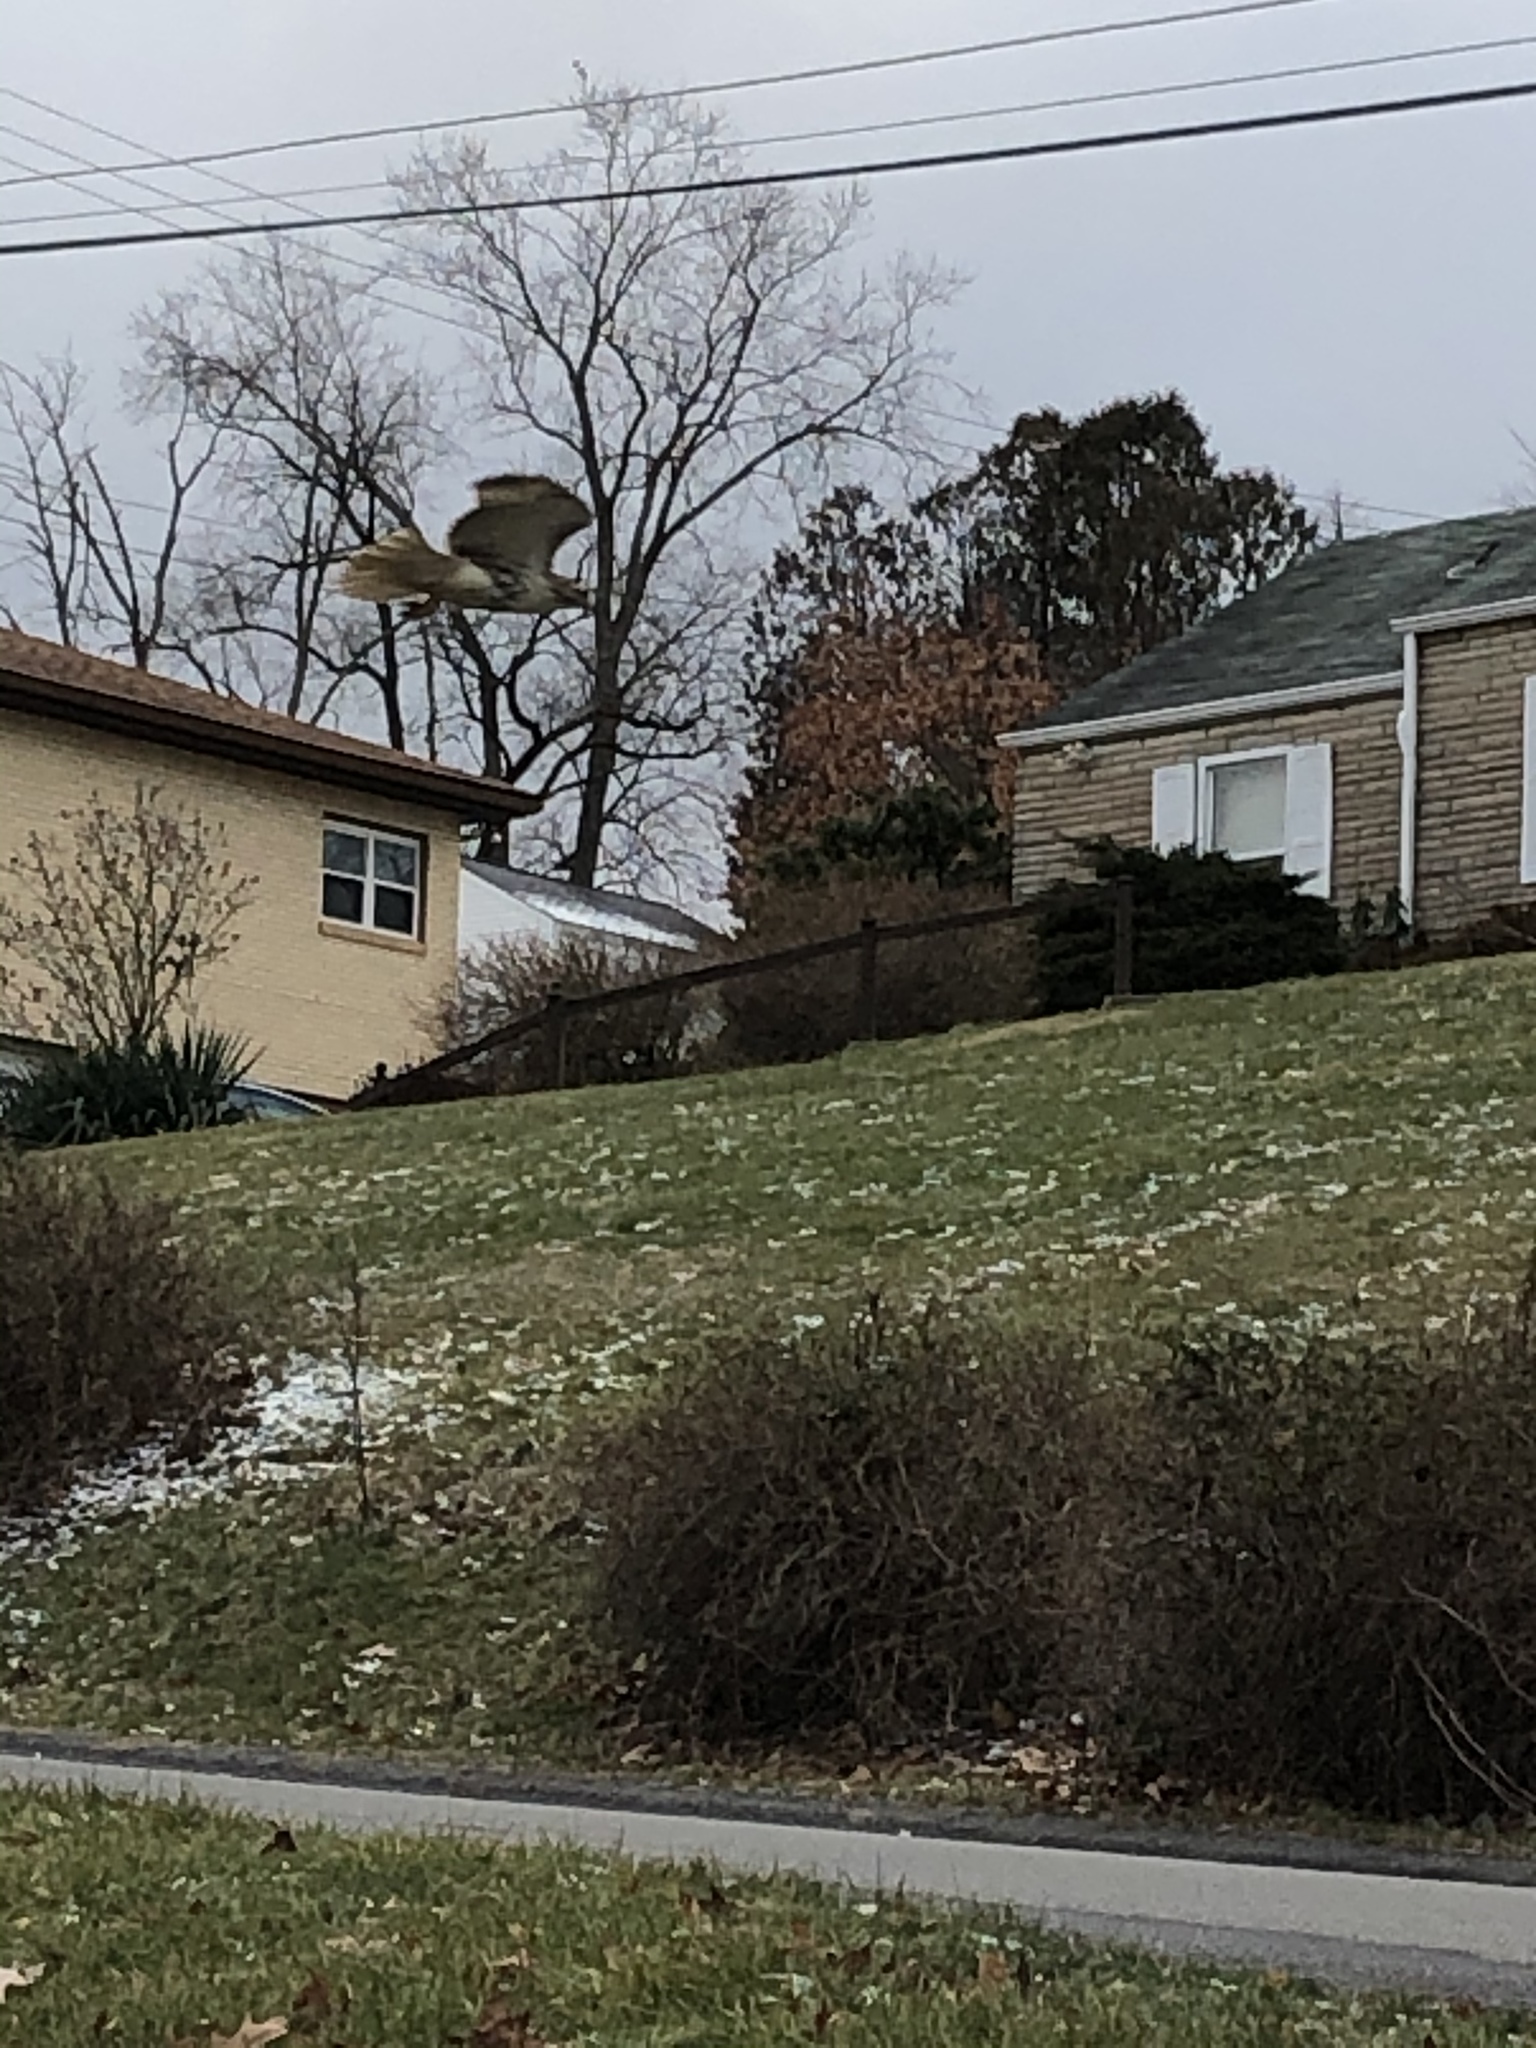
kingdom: Animalia
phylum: Chordata
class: Aves
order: Accipitriformes
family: Accipitridae
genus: Buteo
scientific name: Buteo jamaicensis
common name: Red-tailed hawk
